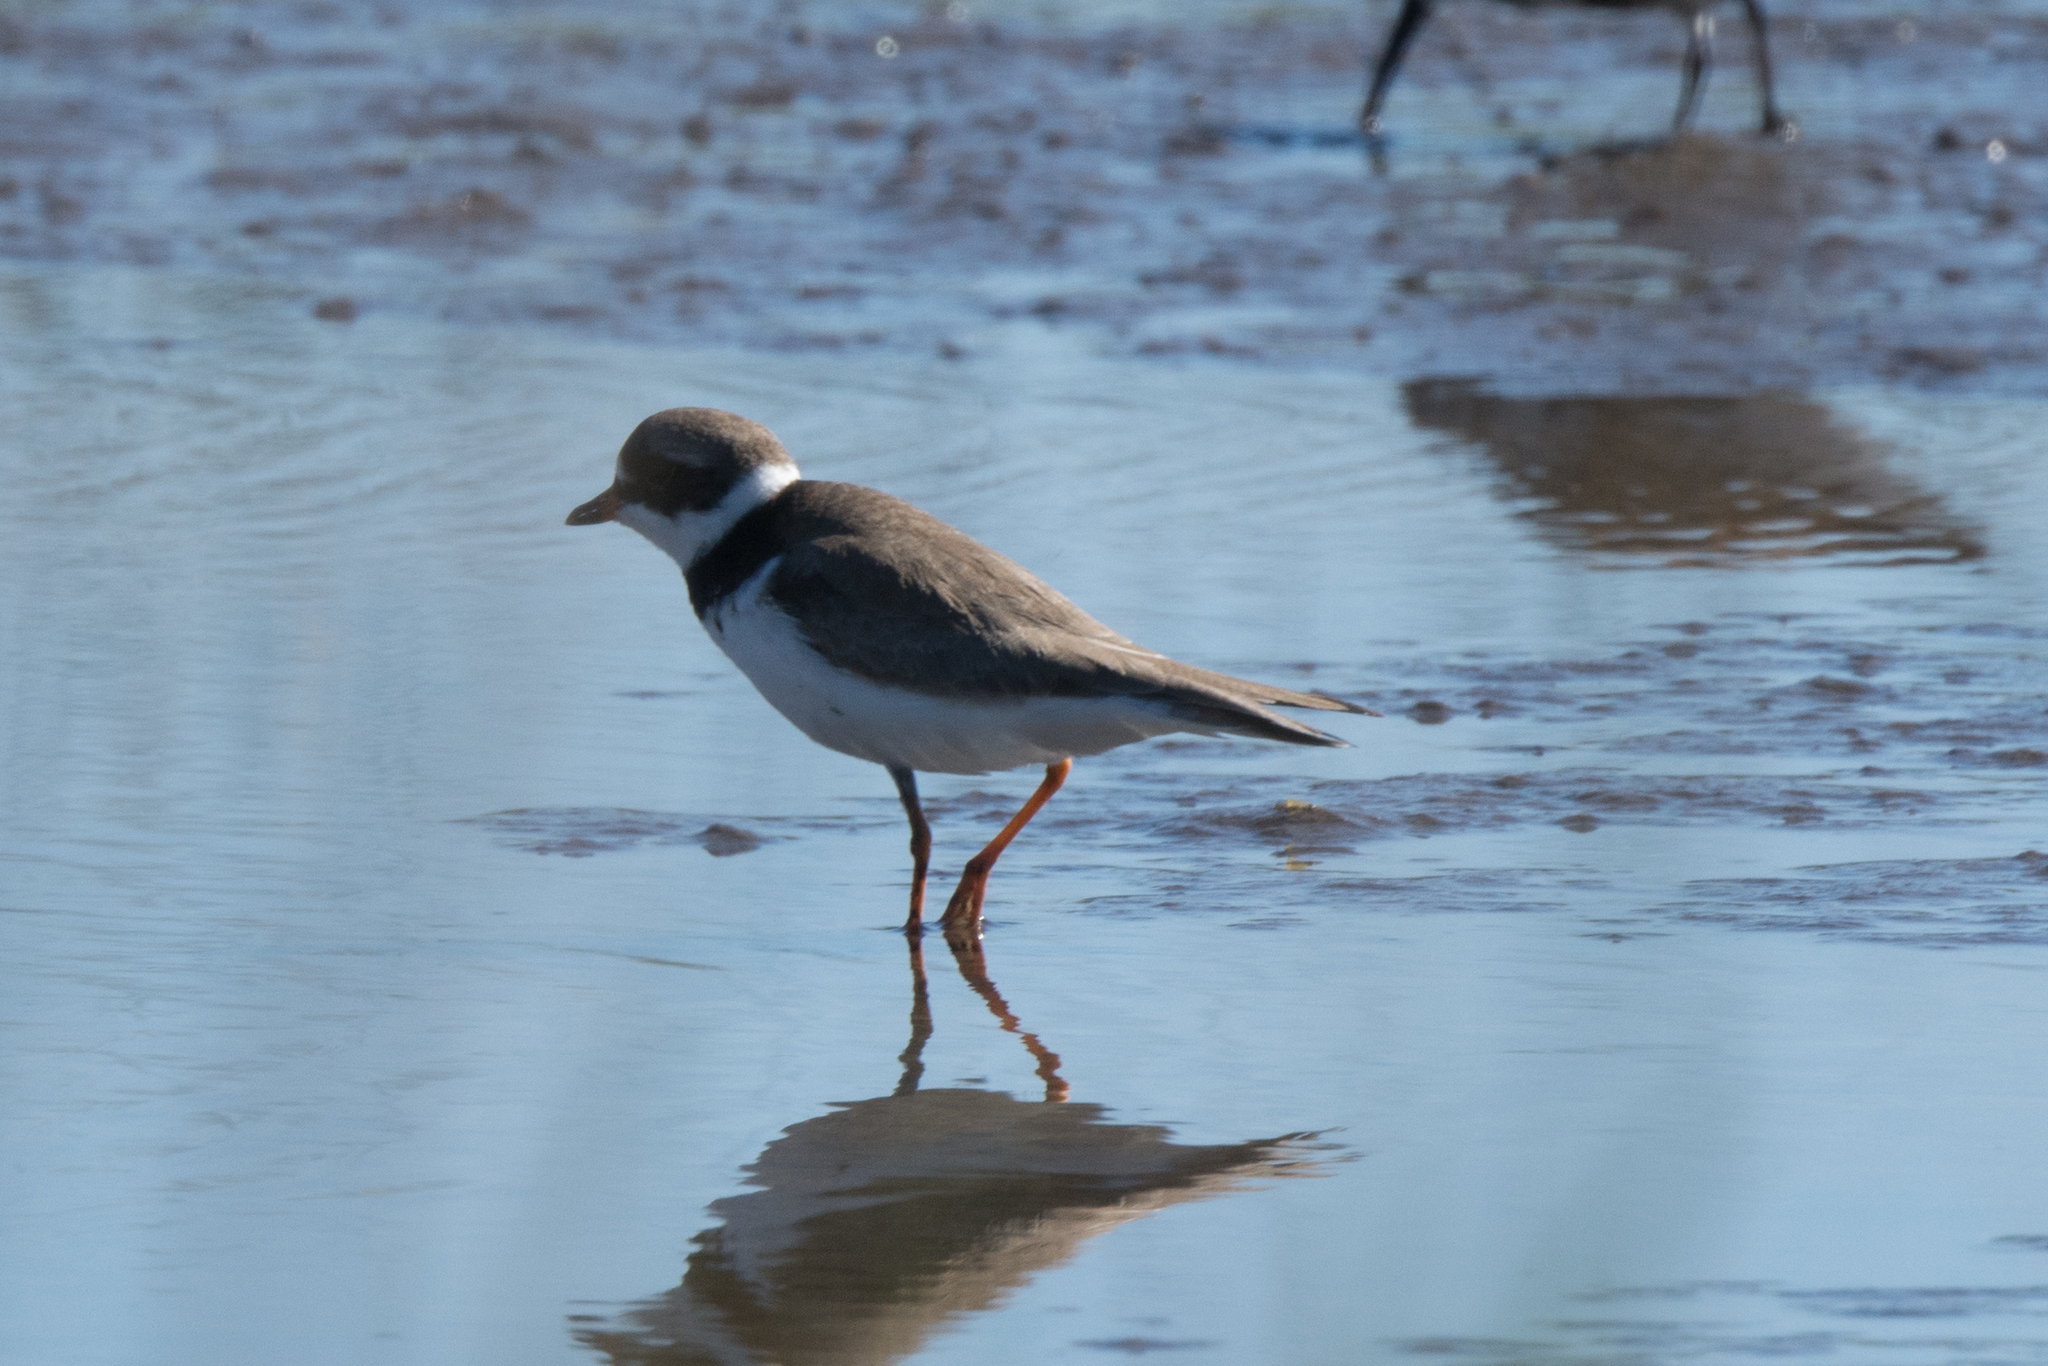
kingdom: Animalia
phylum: Chordata
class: Aves
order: Charadriiformes
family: Charadriidae
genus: Charadrius
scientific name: Charadrius semipalmatus
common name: Semipalmated plover
